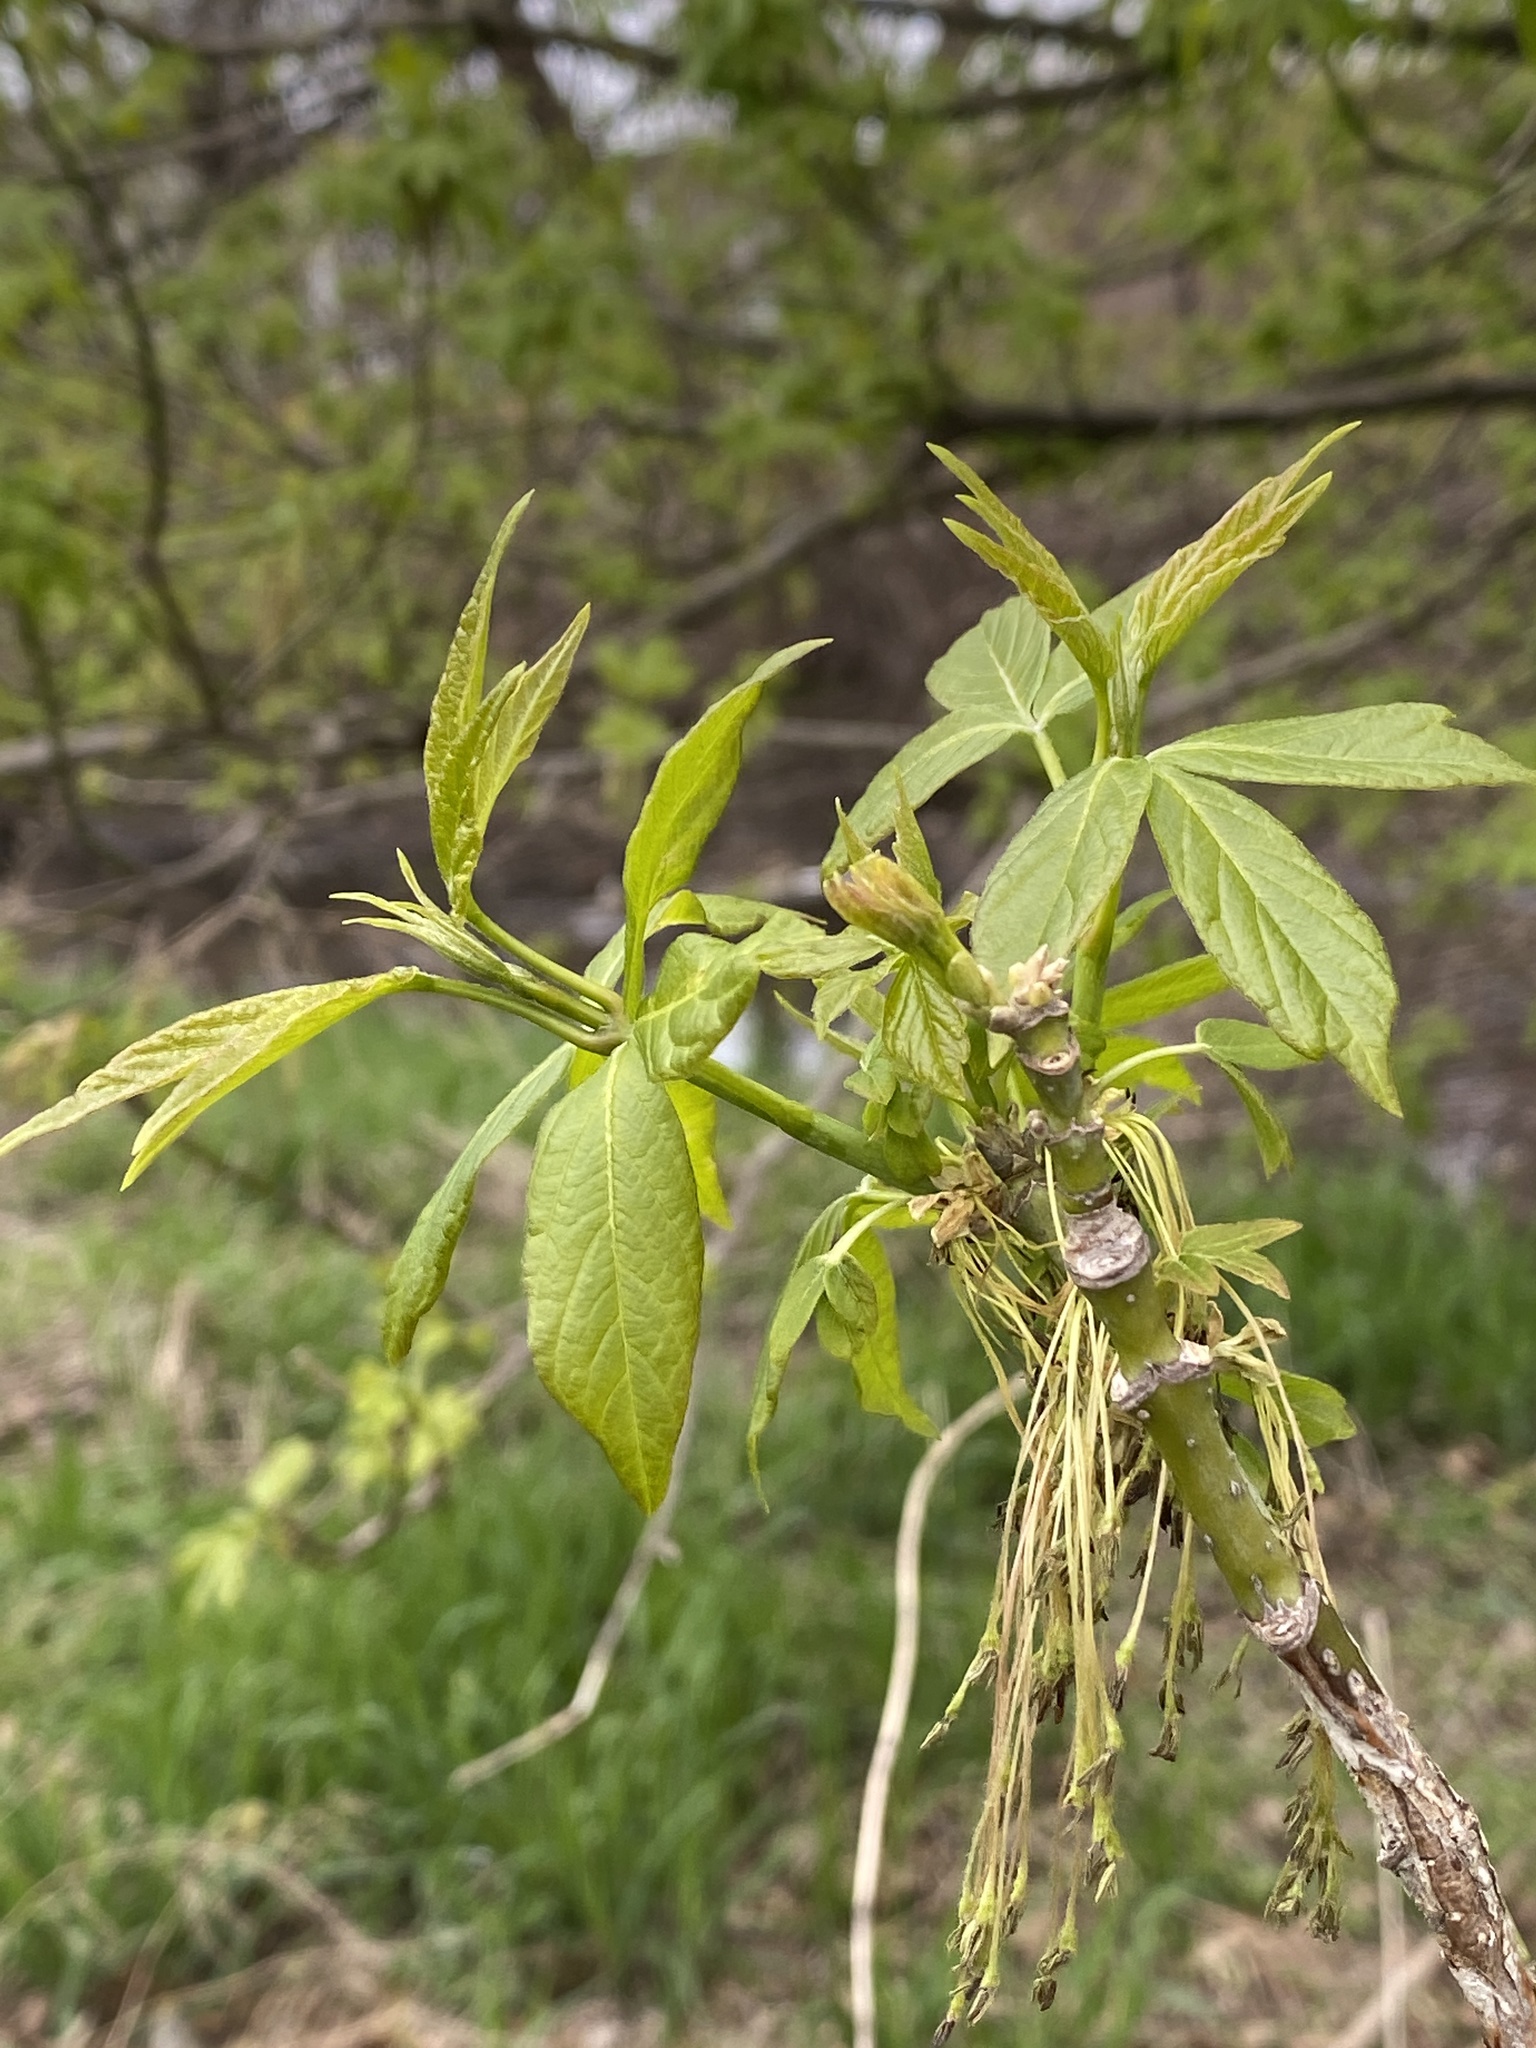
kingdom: Plantae
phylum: Tracheophyta
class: Magnoliopsida
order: Sapindales
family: Sapindaceae
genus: Acer
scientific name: Acer negundo
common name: Ashleaf maple
